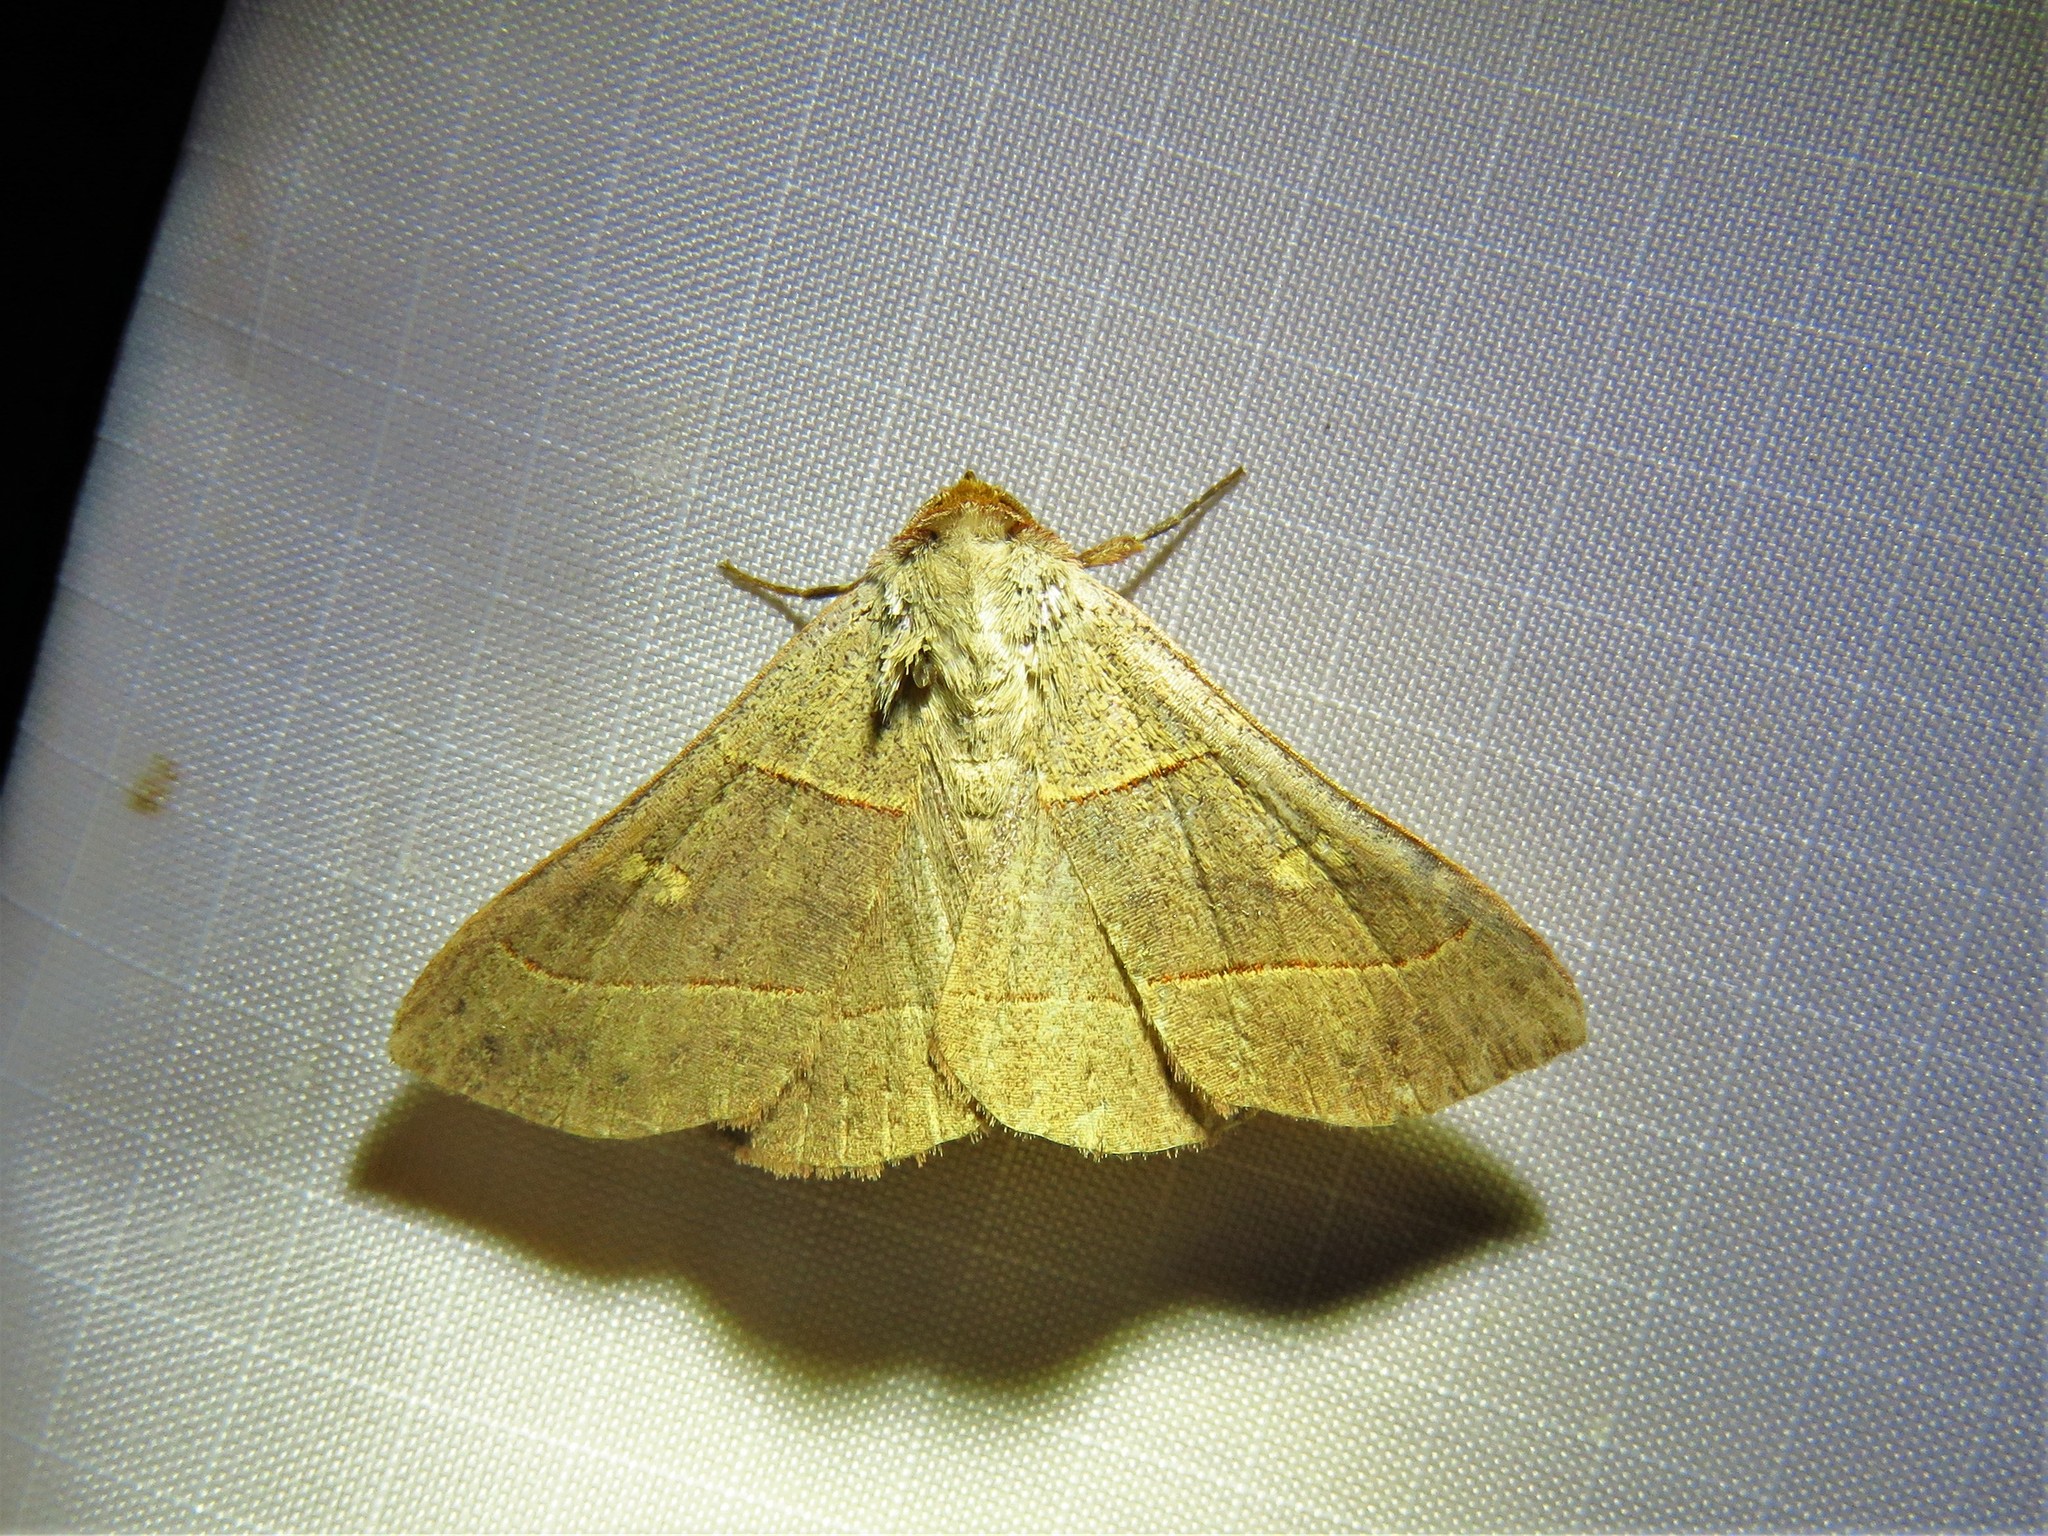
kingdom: Animalia
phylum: Arthropoda
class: Insecta
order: Lepidoptera
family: Erebidae
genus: Panopoda
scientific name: Panopoda rufimargo
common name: Red-lined panopoda moth
